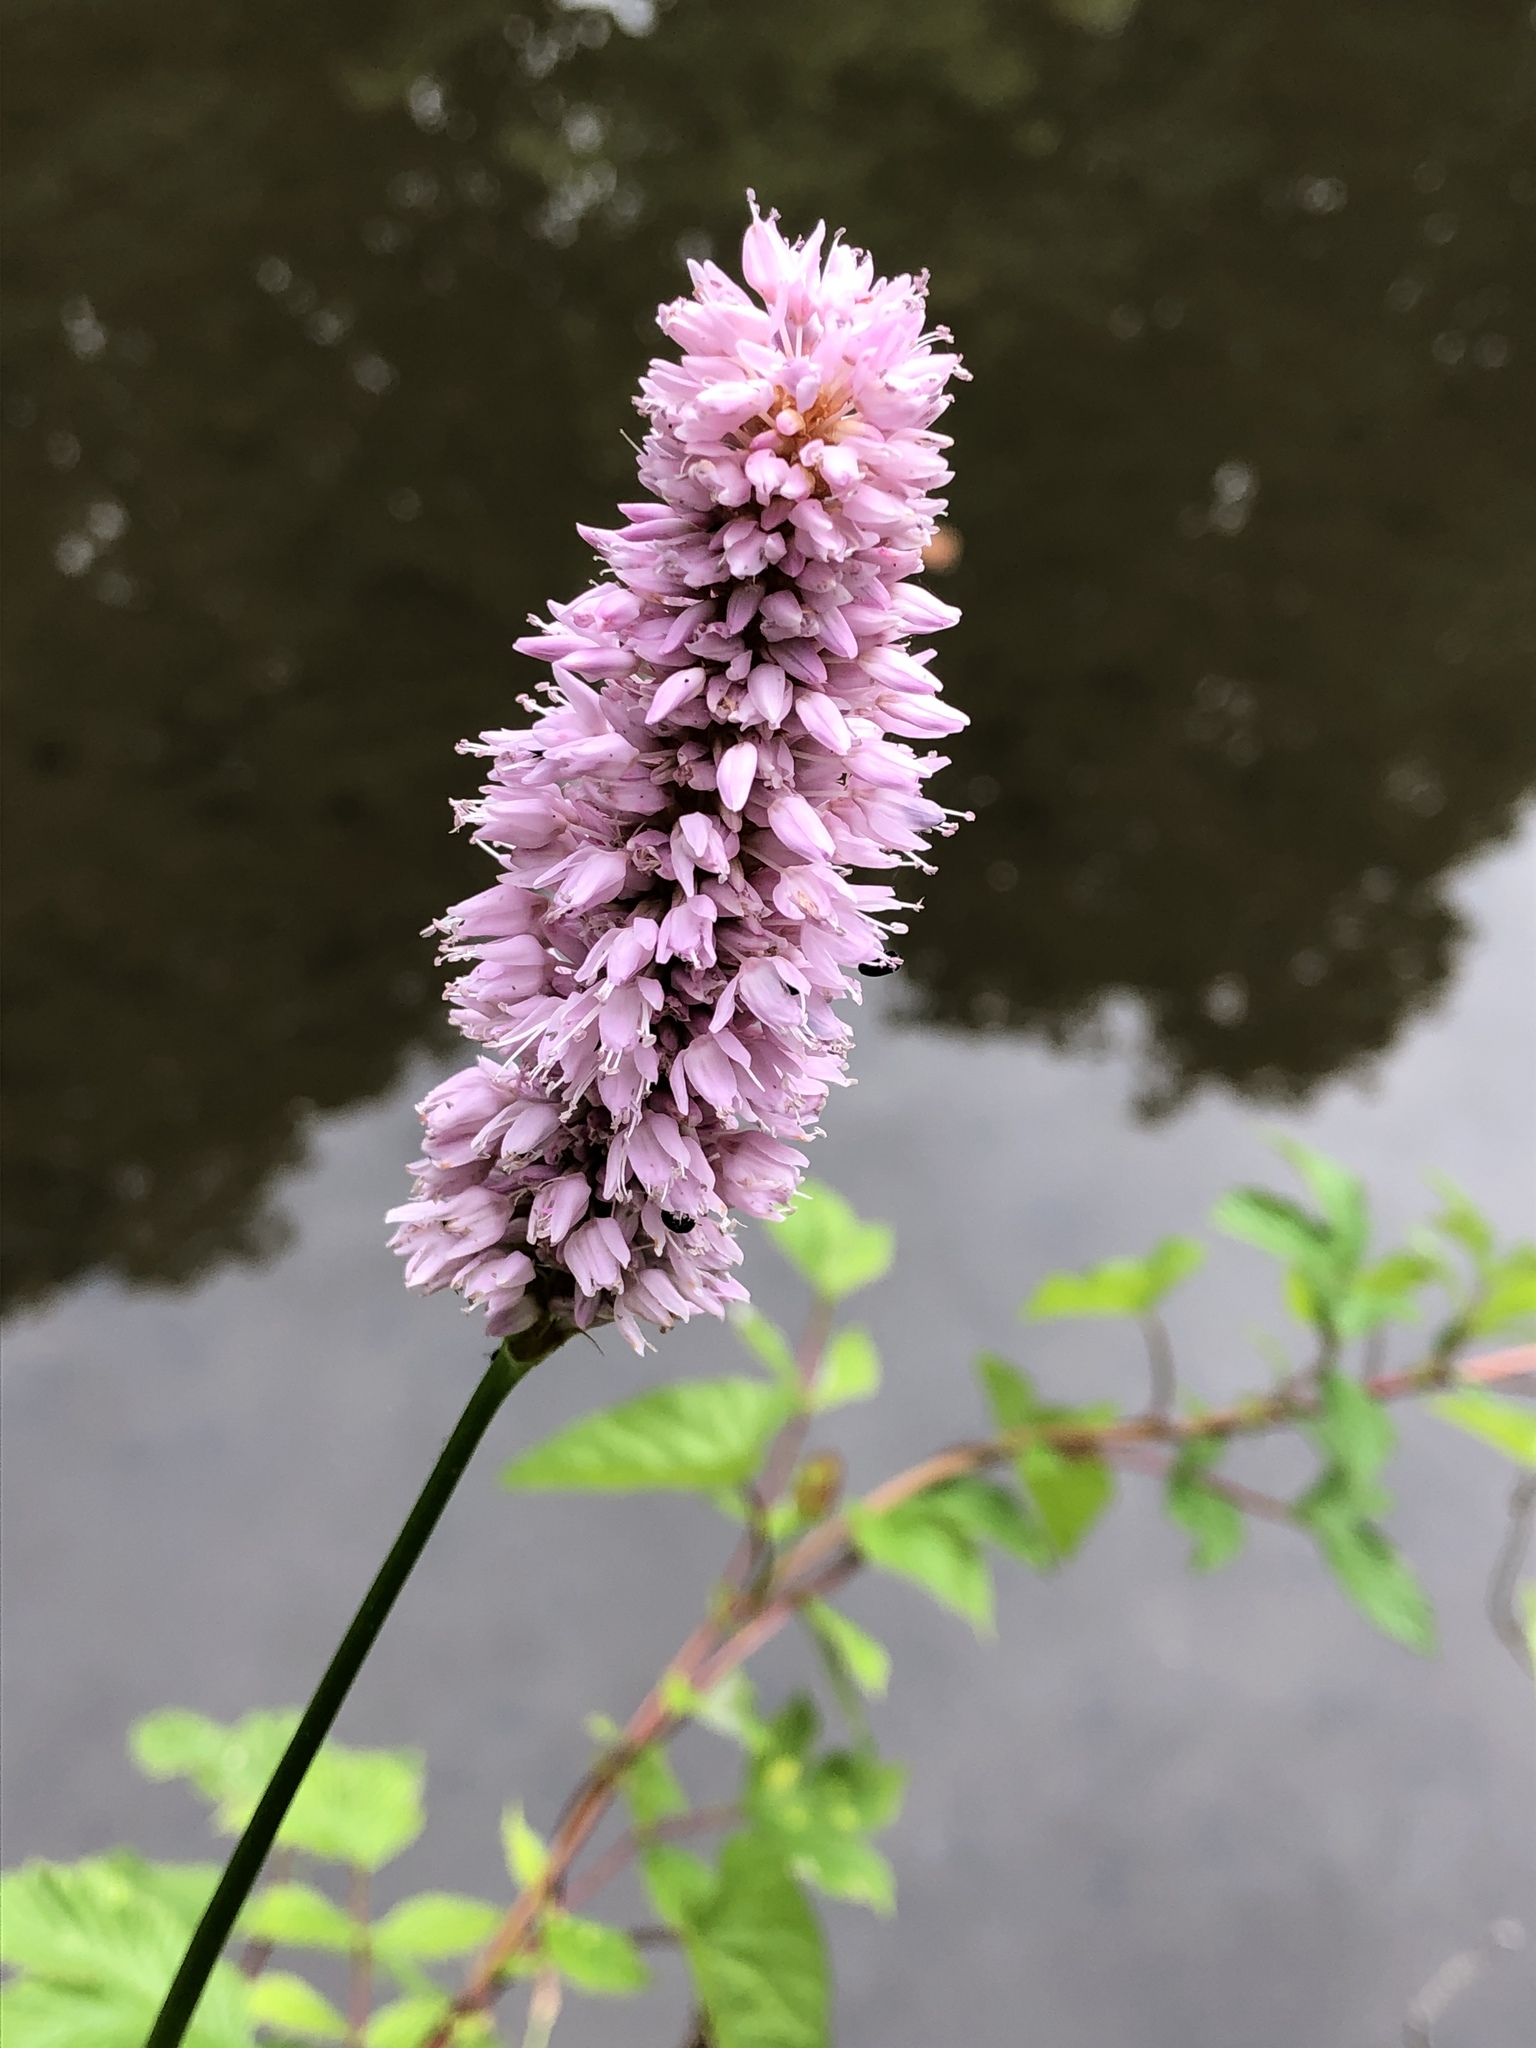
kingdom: Plantae
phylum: Tracheophyta
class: Magnoliopsida
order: Caryophyllales
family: Polygonaceae
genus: Bistorta
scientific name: Bistorta officinalis
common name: Common bistort
